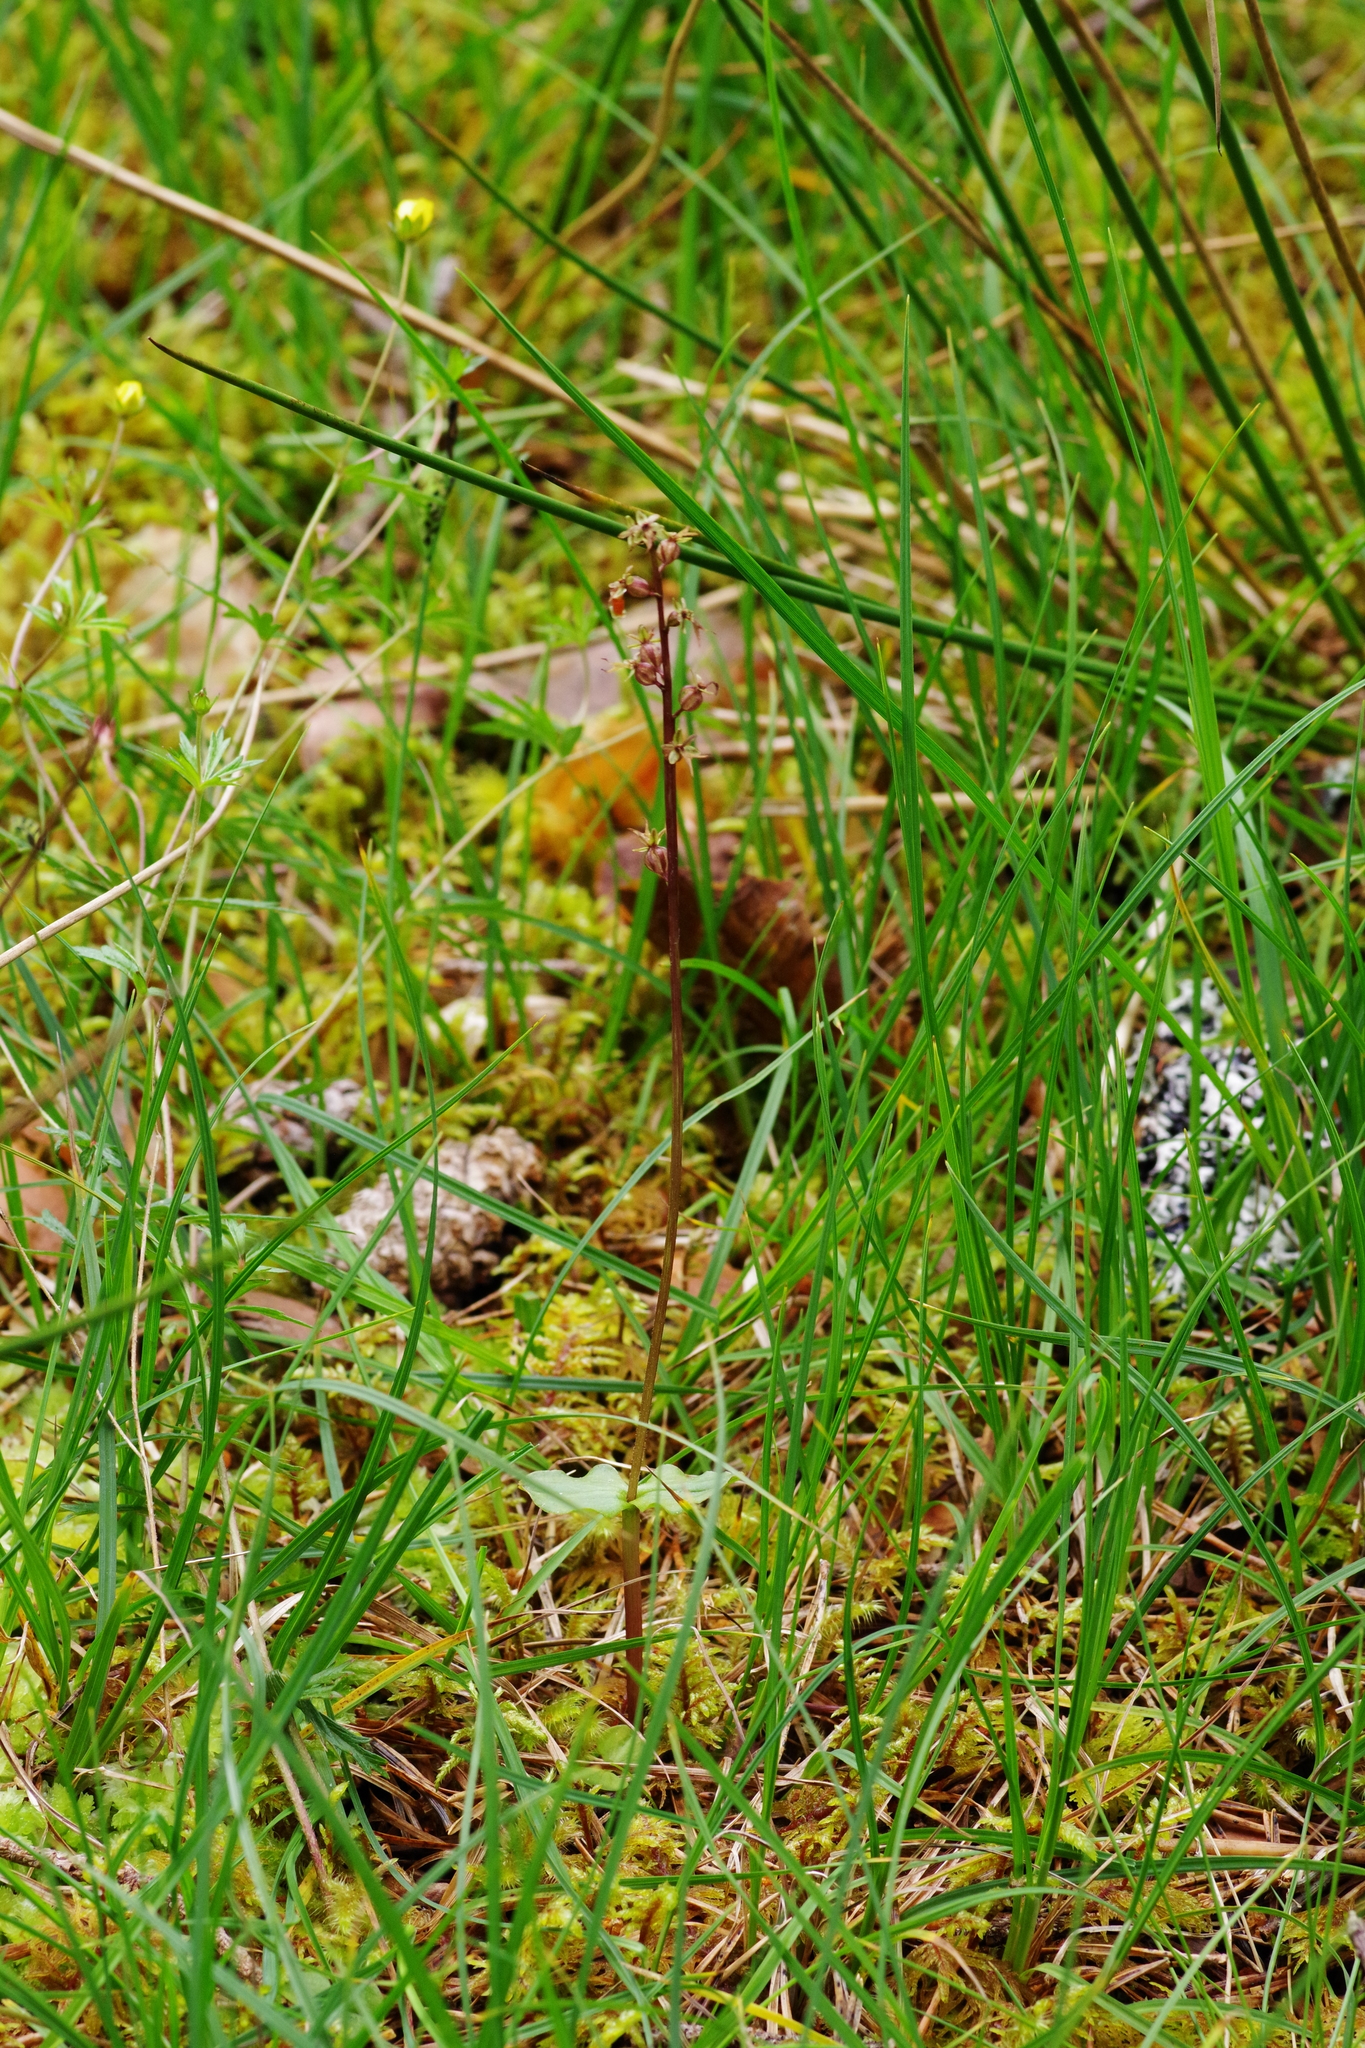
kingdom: Plantae
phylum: Tracheophyta
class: Liliopsida
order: Asparagales
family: Orchidaceae
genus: Neottia
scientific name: Neottia cordata
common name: Lesser twayblade
